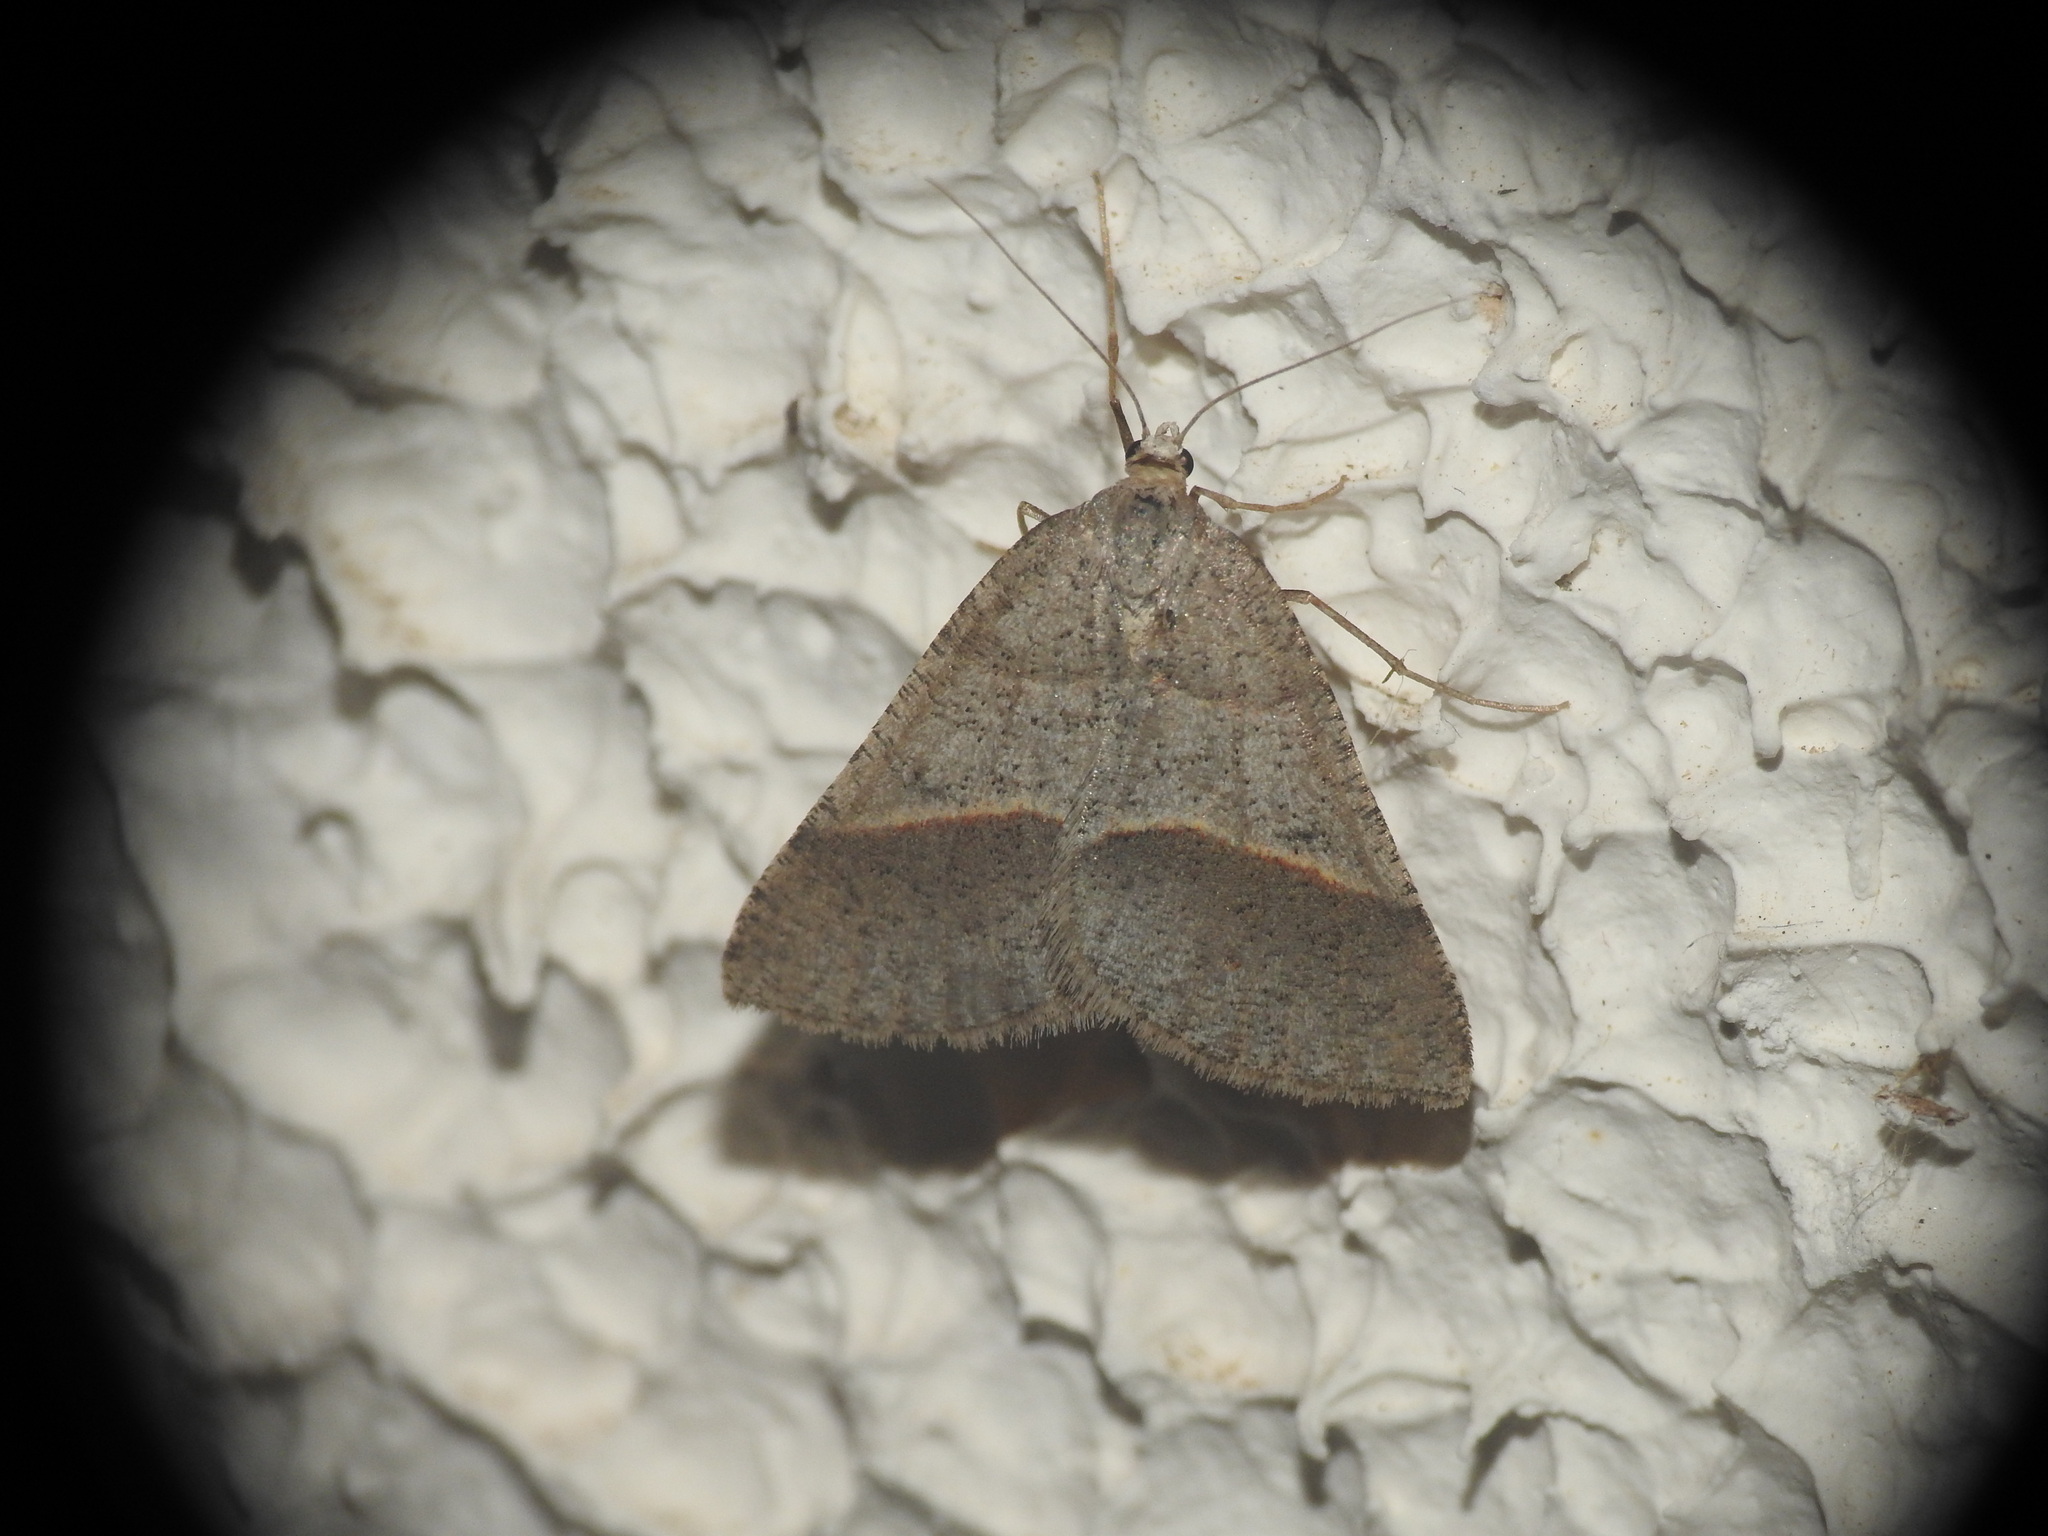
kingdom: Animalia
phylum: Arthropoda
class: Insecta
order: Lepidoptera
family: Pterophoridae
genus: Pterophorus
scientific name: Pterophorus Petrophora convergata
